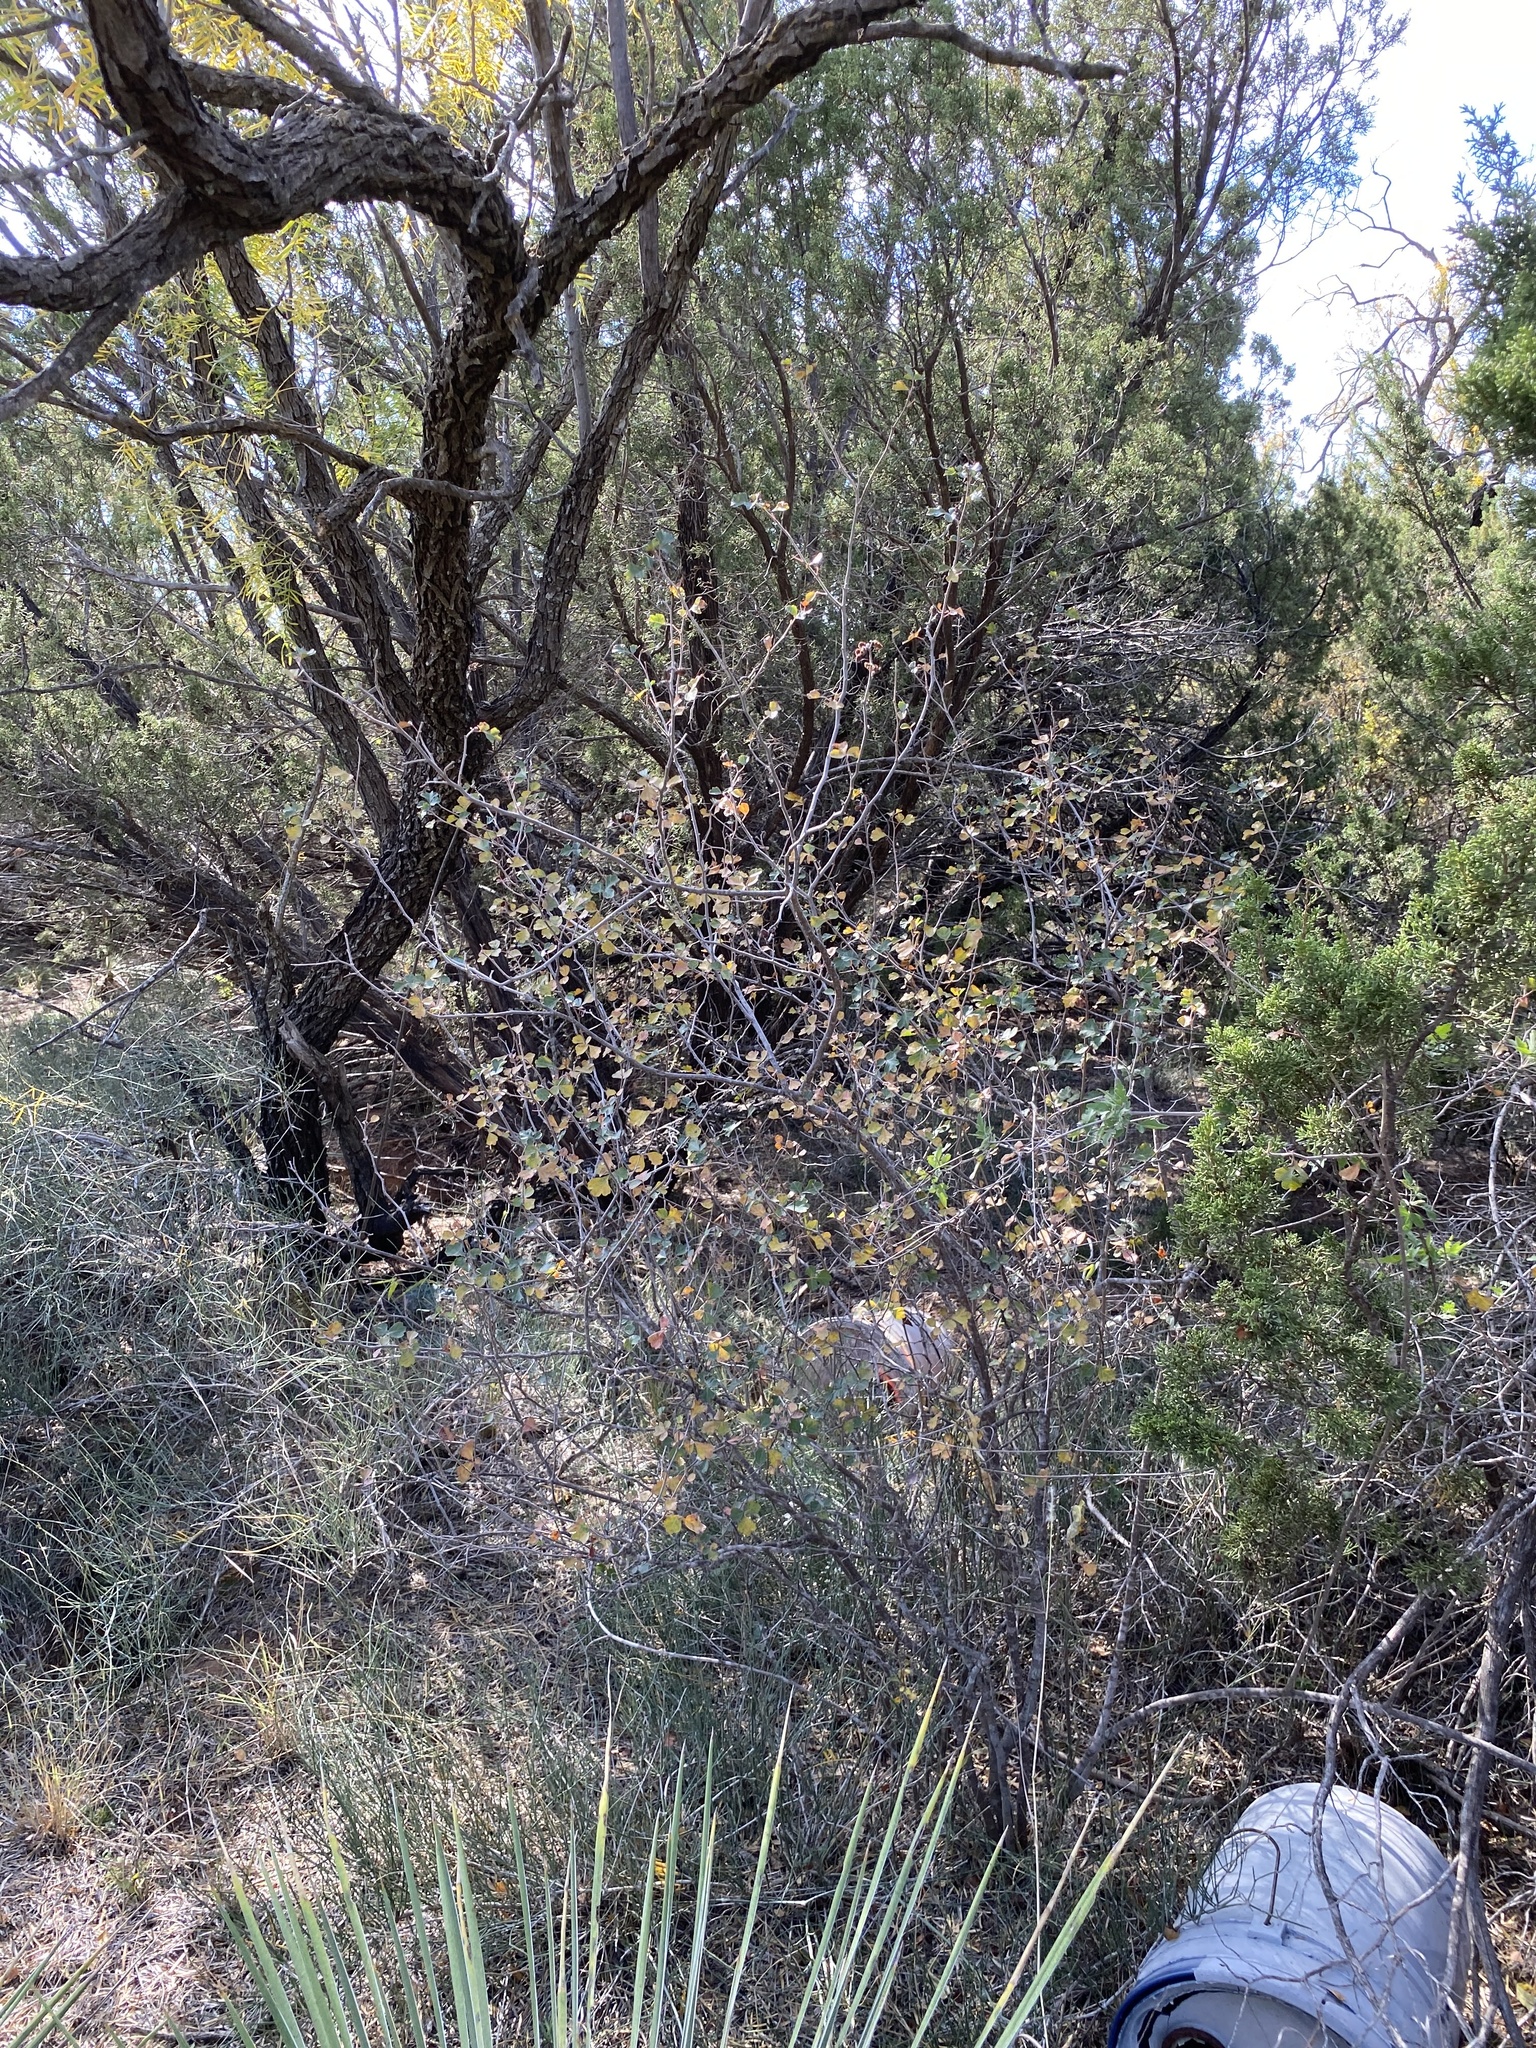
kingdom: Plantae
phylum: Tracheophyta
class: Magnoliopsida
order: Sapindales
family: Anacardiaceae
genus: Rhus
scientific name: Rhus aromatica
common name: Aromatic sumac
